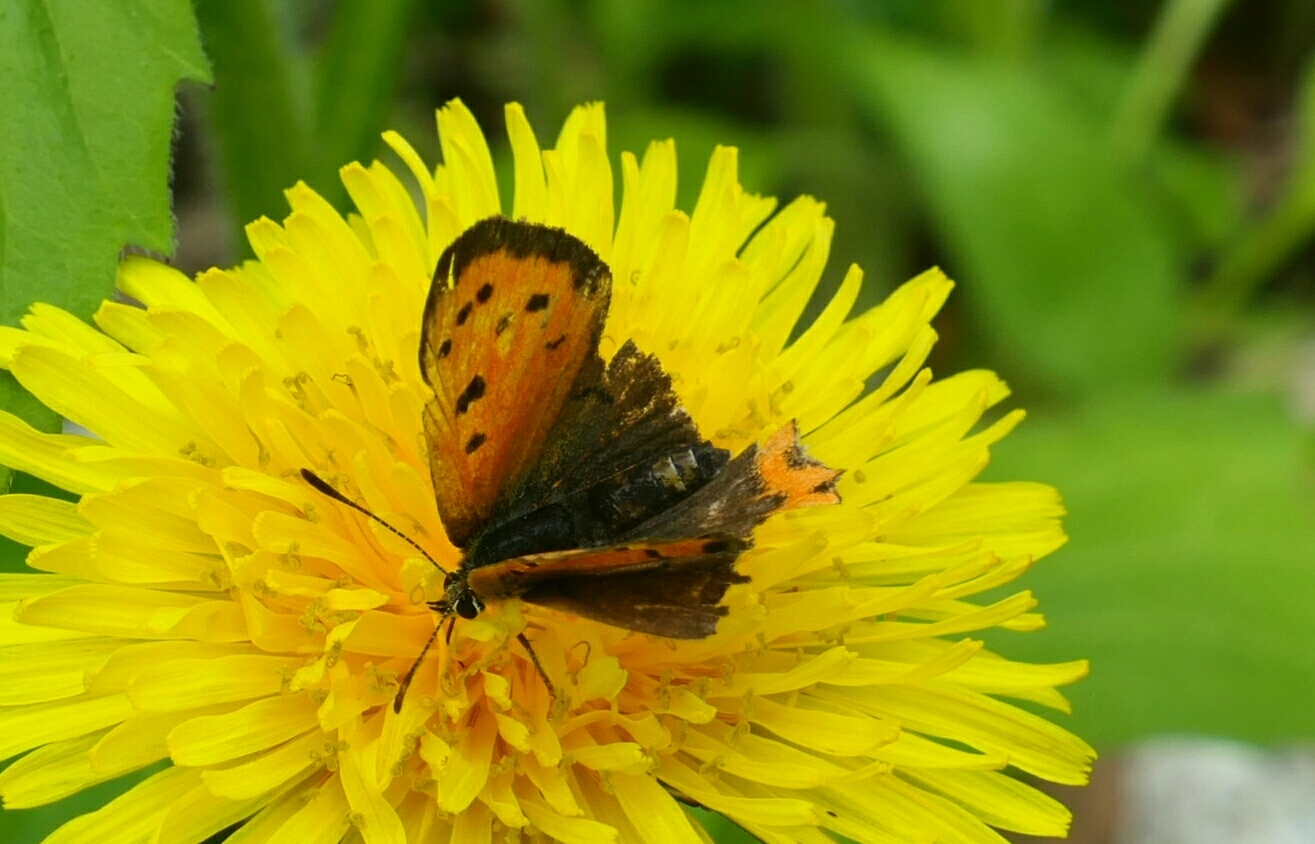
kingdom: Animalia
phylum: Arthropoda
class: Insecta
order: Lepidoptera
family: Lycaenidae
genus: Lycaena
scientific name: Lycaena phlaeas
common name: Small copper
